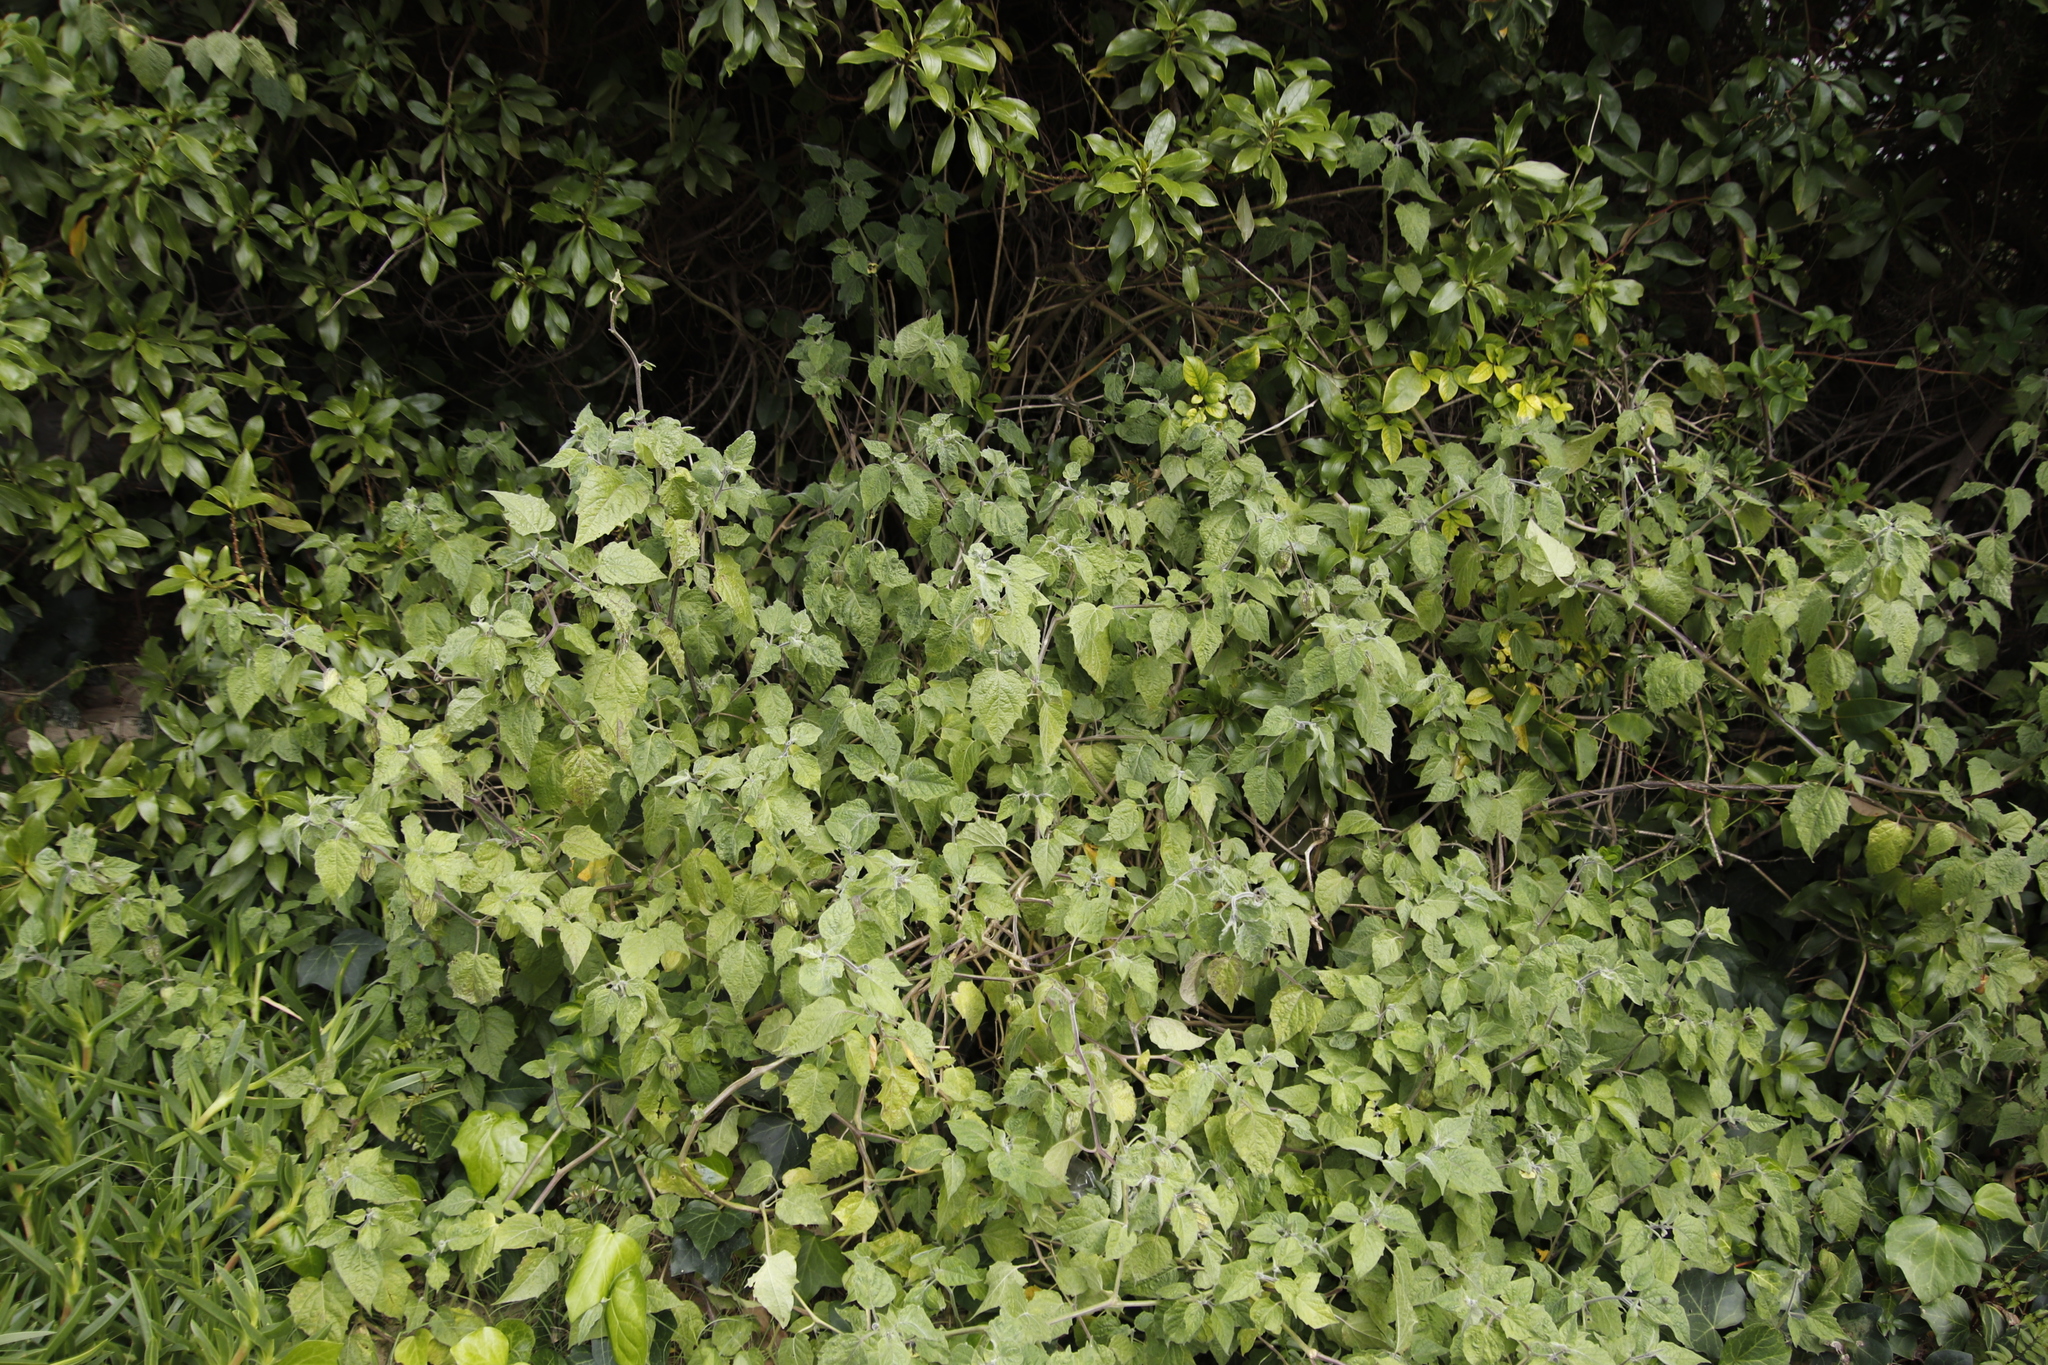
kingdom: Plantae
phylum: Tracheophyta
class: Magnoliopsida
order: Solanales
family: Solanaceae
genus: Physalis
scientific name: Physalis peruviana
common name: Cape-gooseberry
